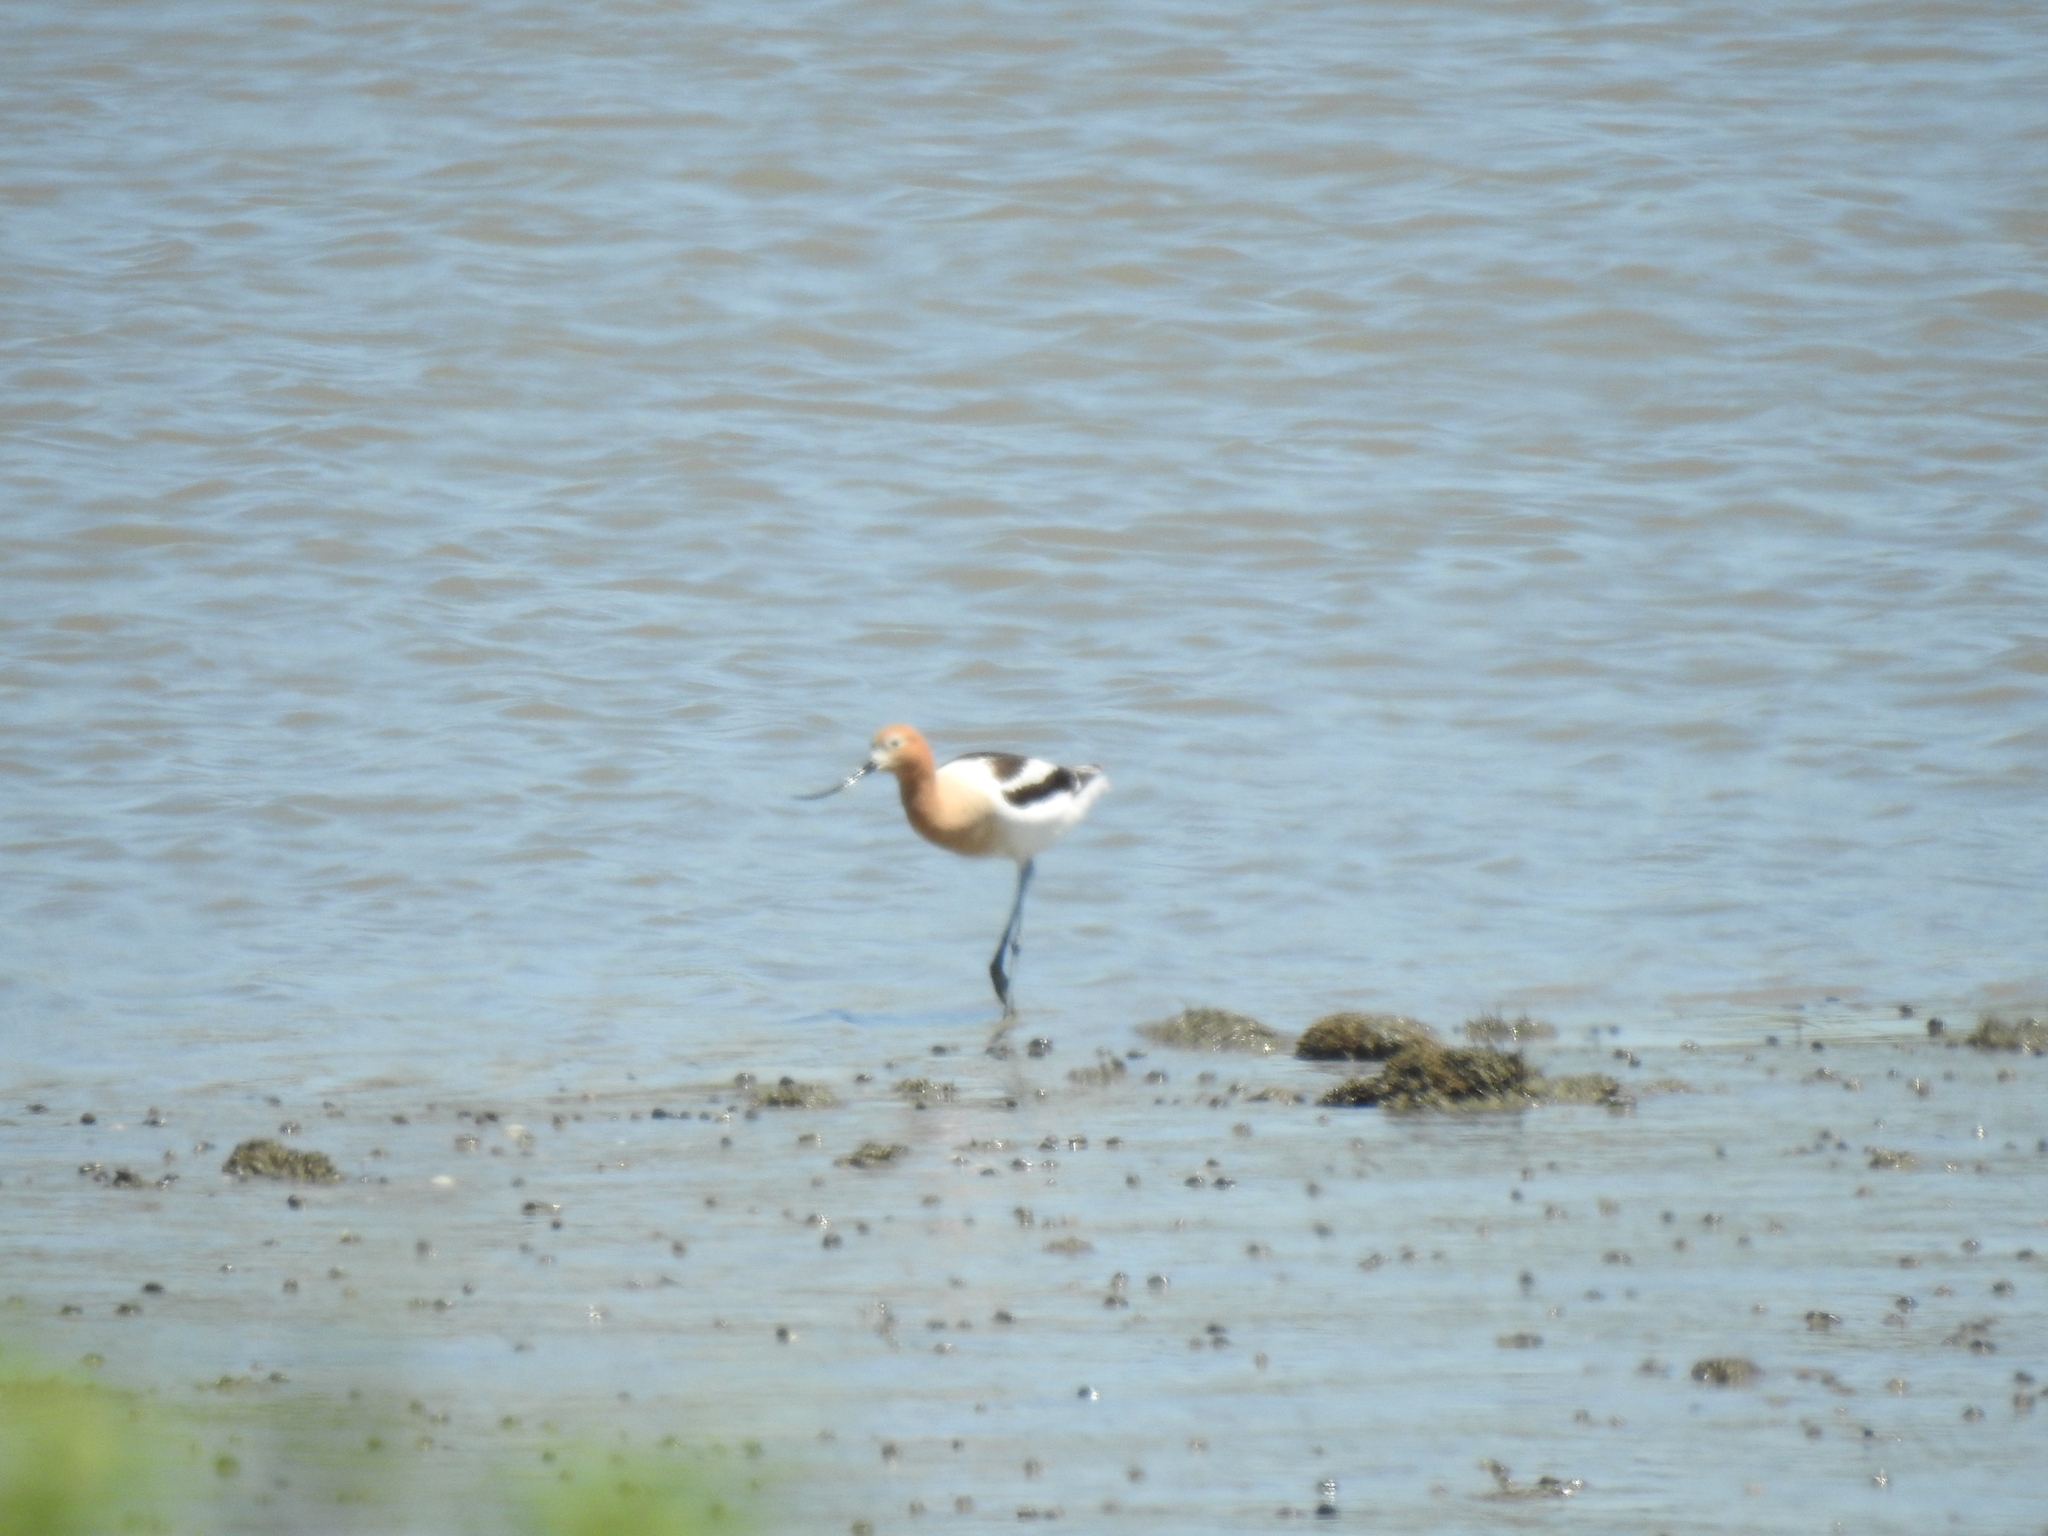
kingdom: Animalia
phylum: Chordata
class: Aves
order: Charadriiformes
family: Recurvirostridae
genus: Recurvirostra
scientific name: Recurvirostra americana
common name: American avocet
